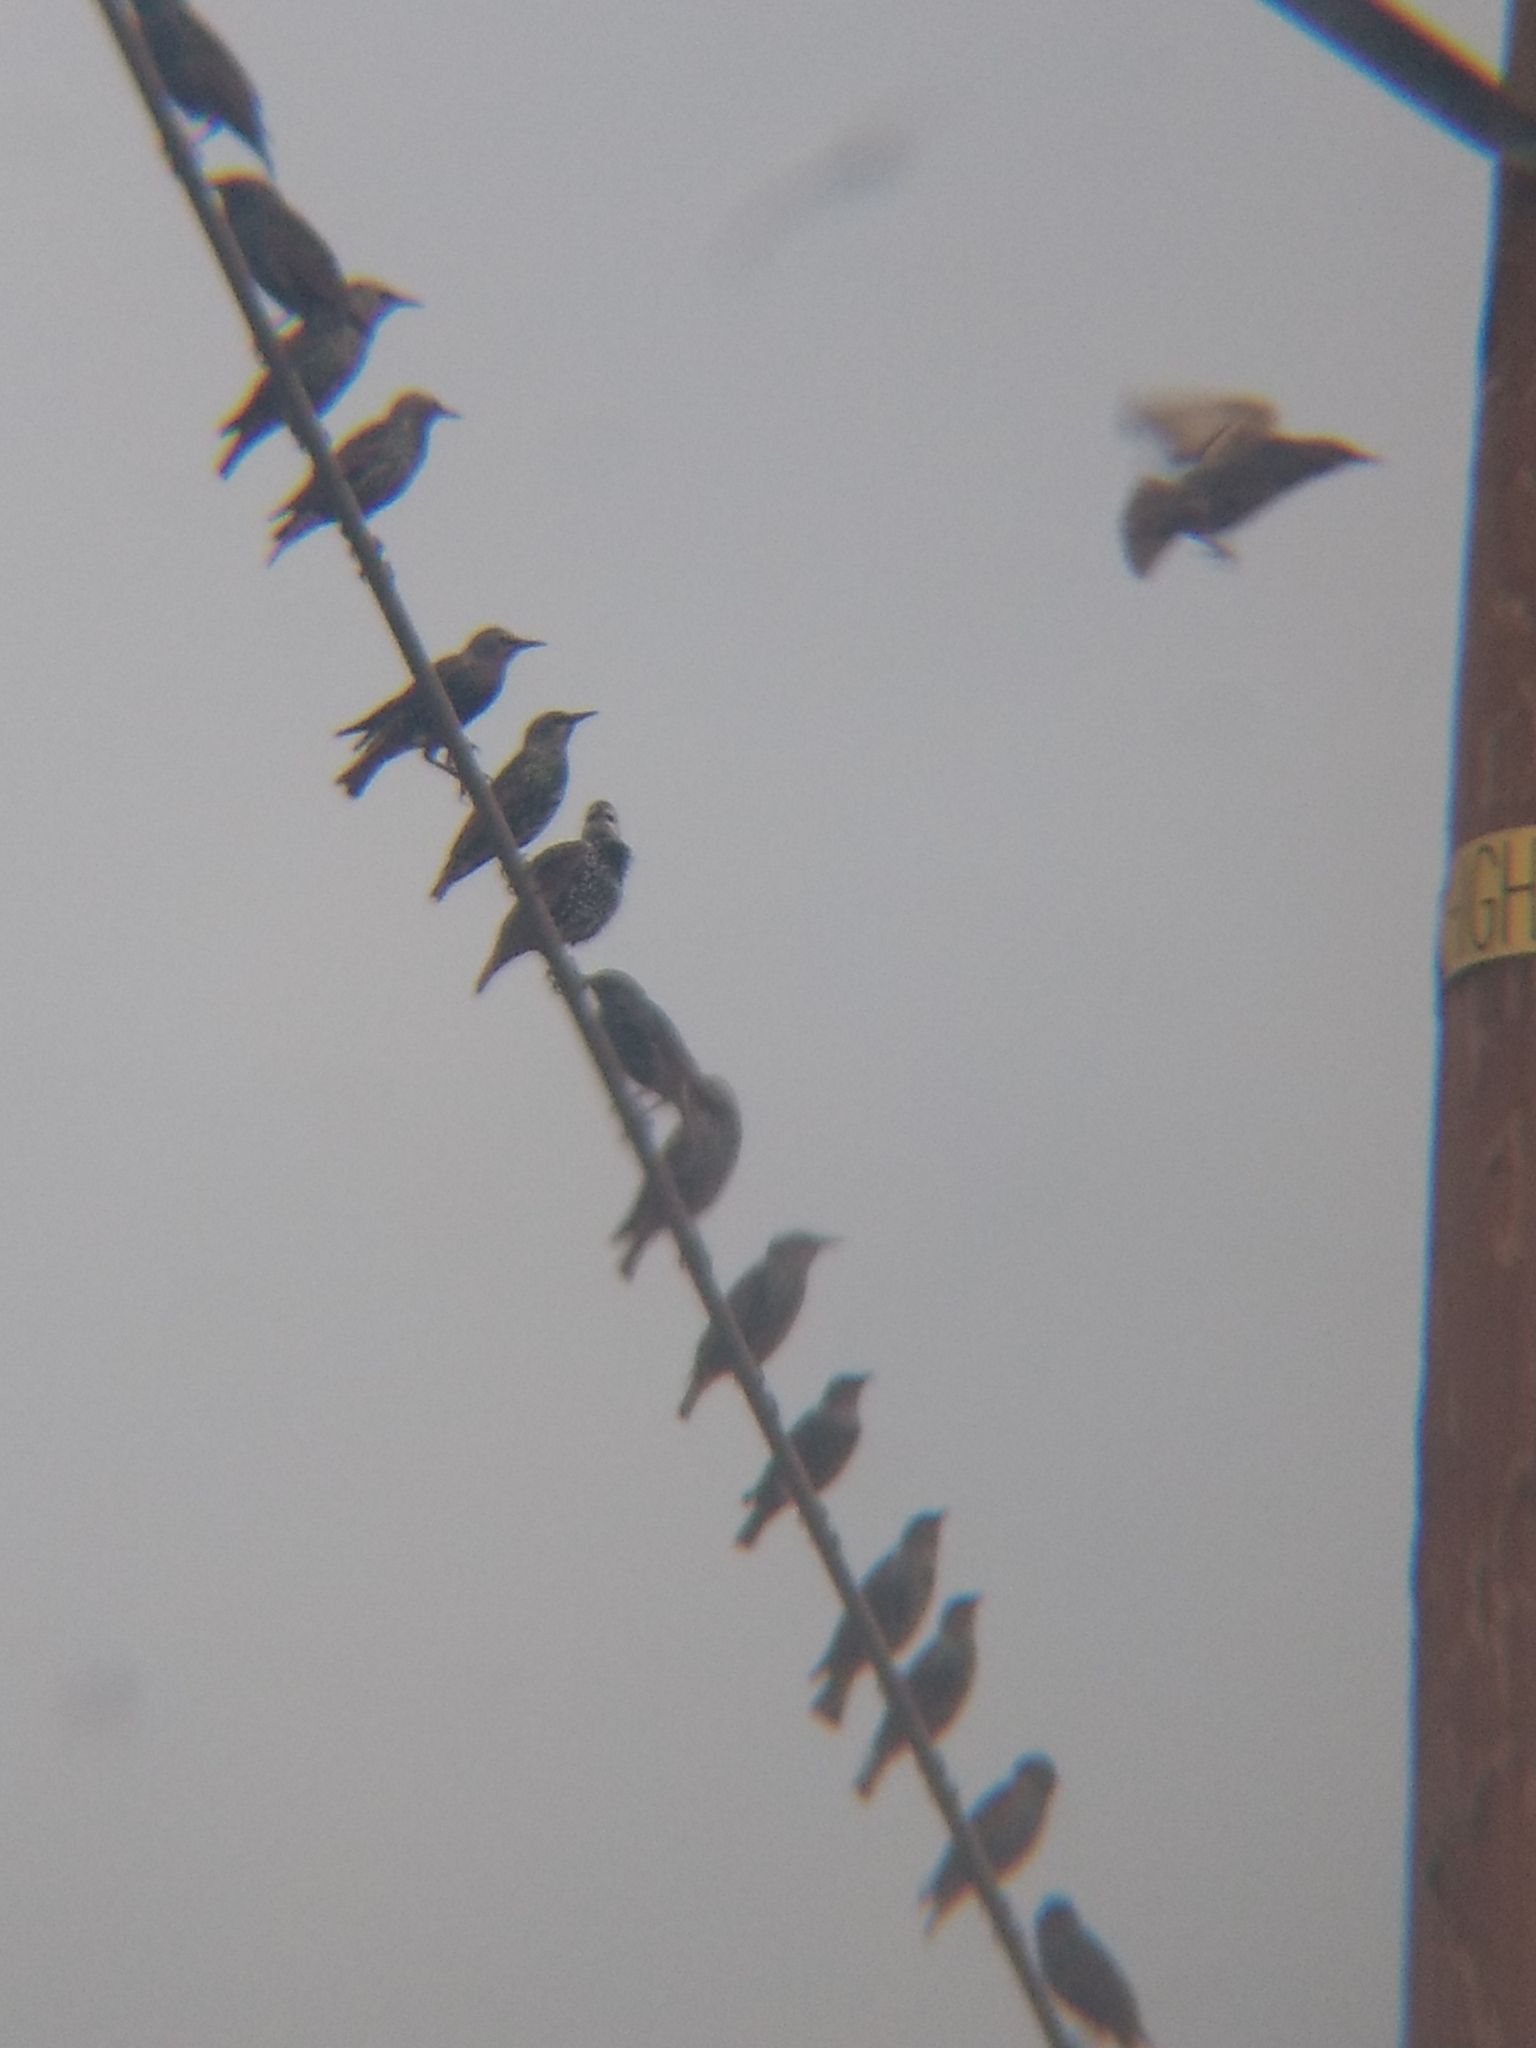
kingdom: Animalia
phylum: Chordata
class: Aves
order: Passeriformes
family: Sturnidae
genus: Sturnus
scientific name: Sturnus vulgaris
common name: Common starling
